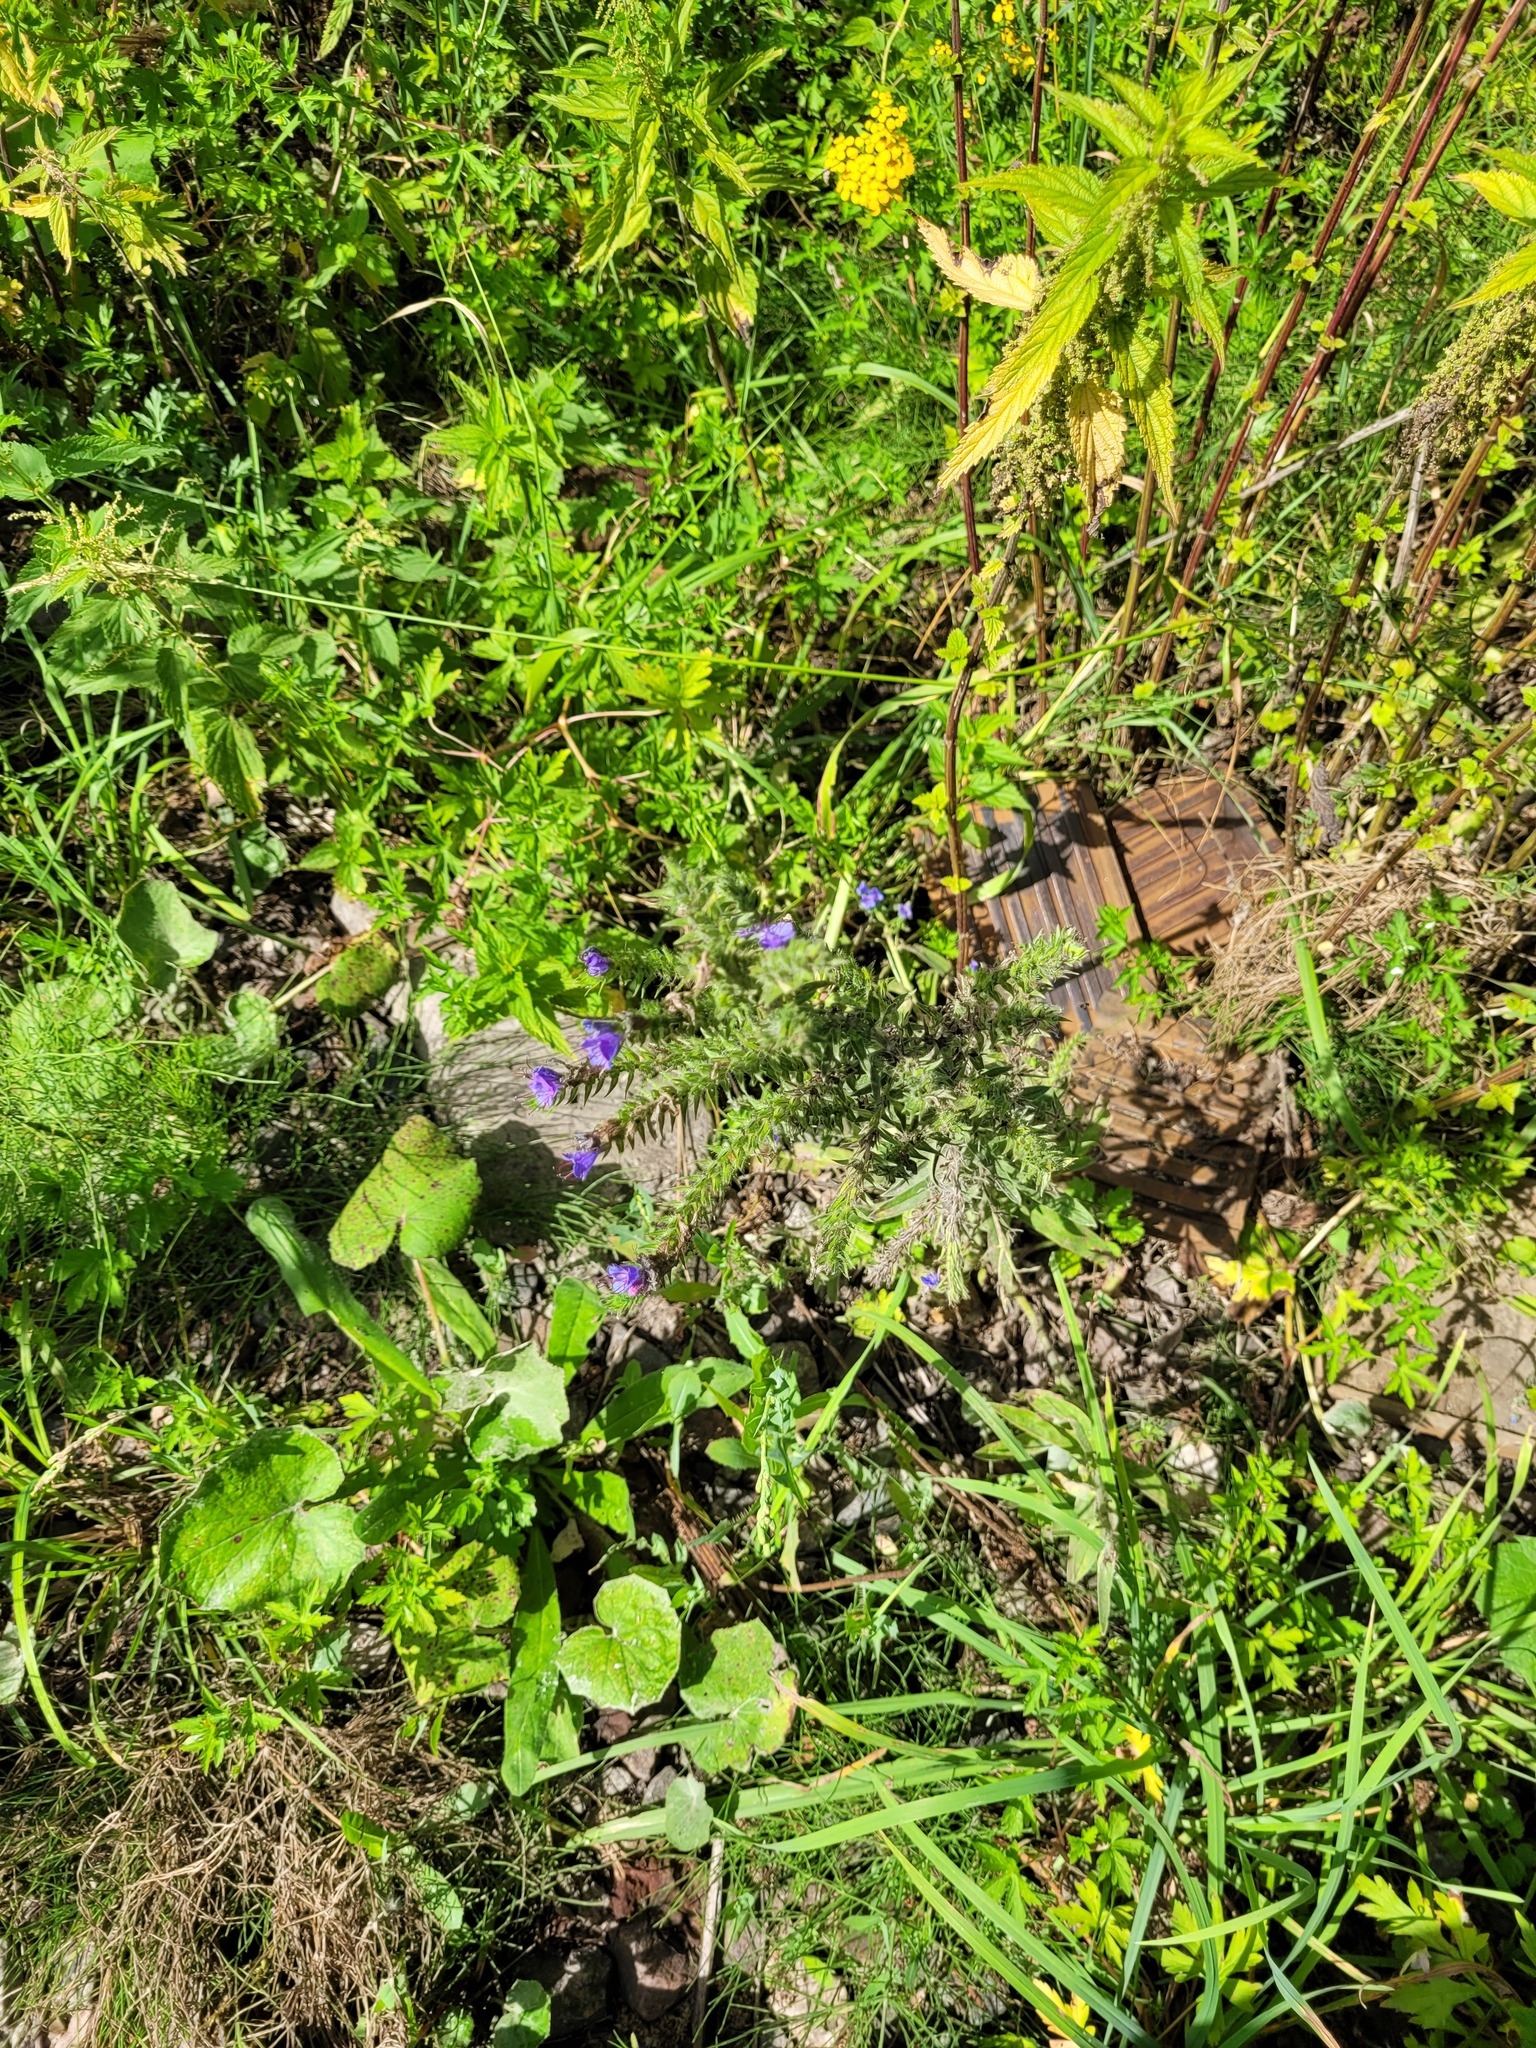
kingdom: Plantae
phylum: Tracheophyta
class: Magnoliopsida
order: Boraginales
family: Boraginaceae
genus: Echium
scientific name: Echium vulgare
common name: Common viper's bugloss
